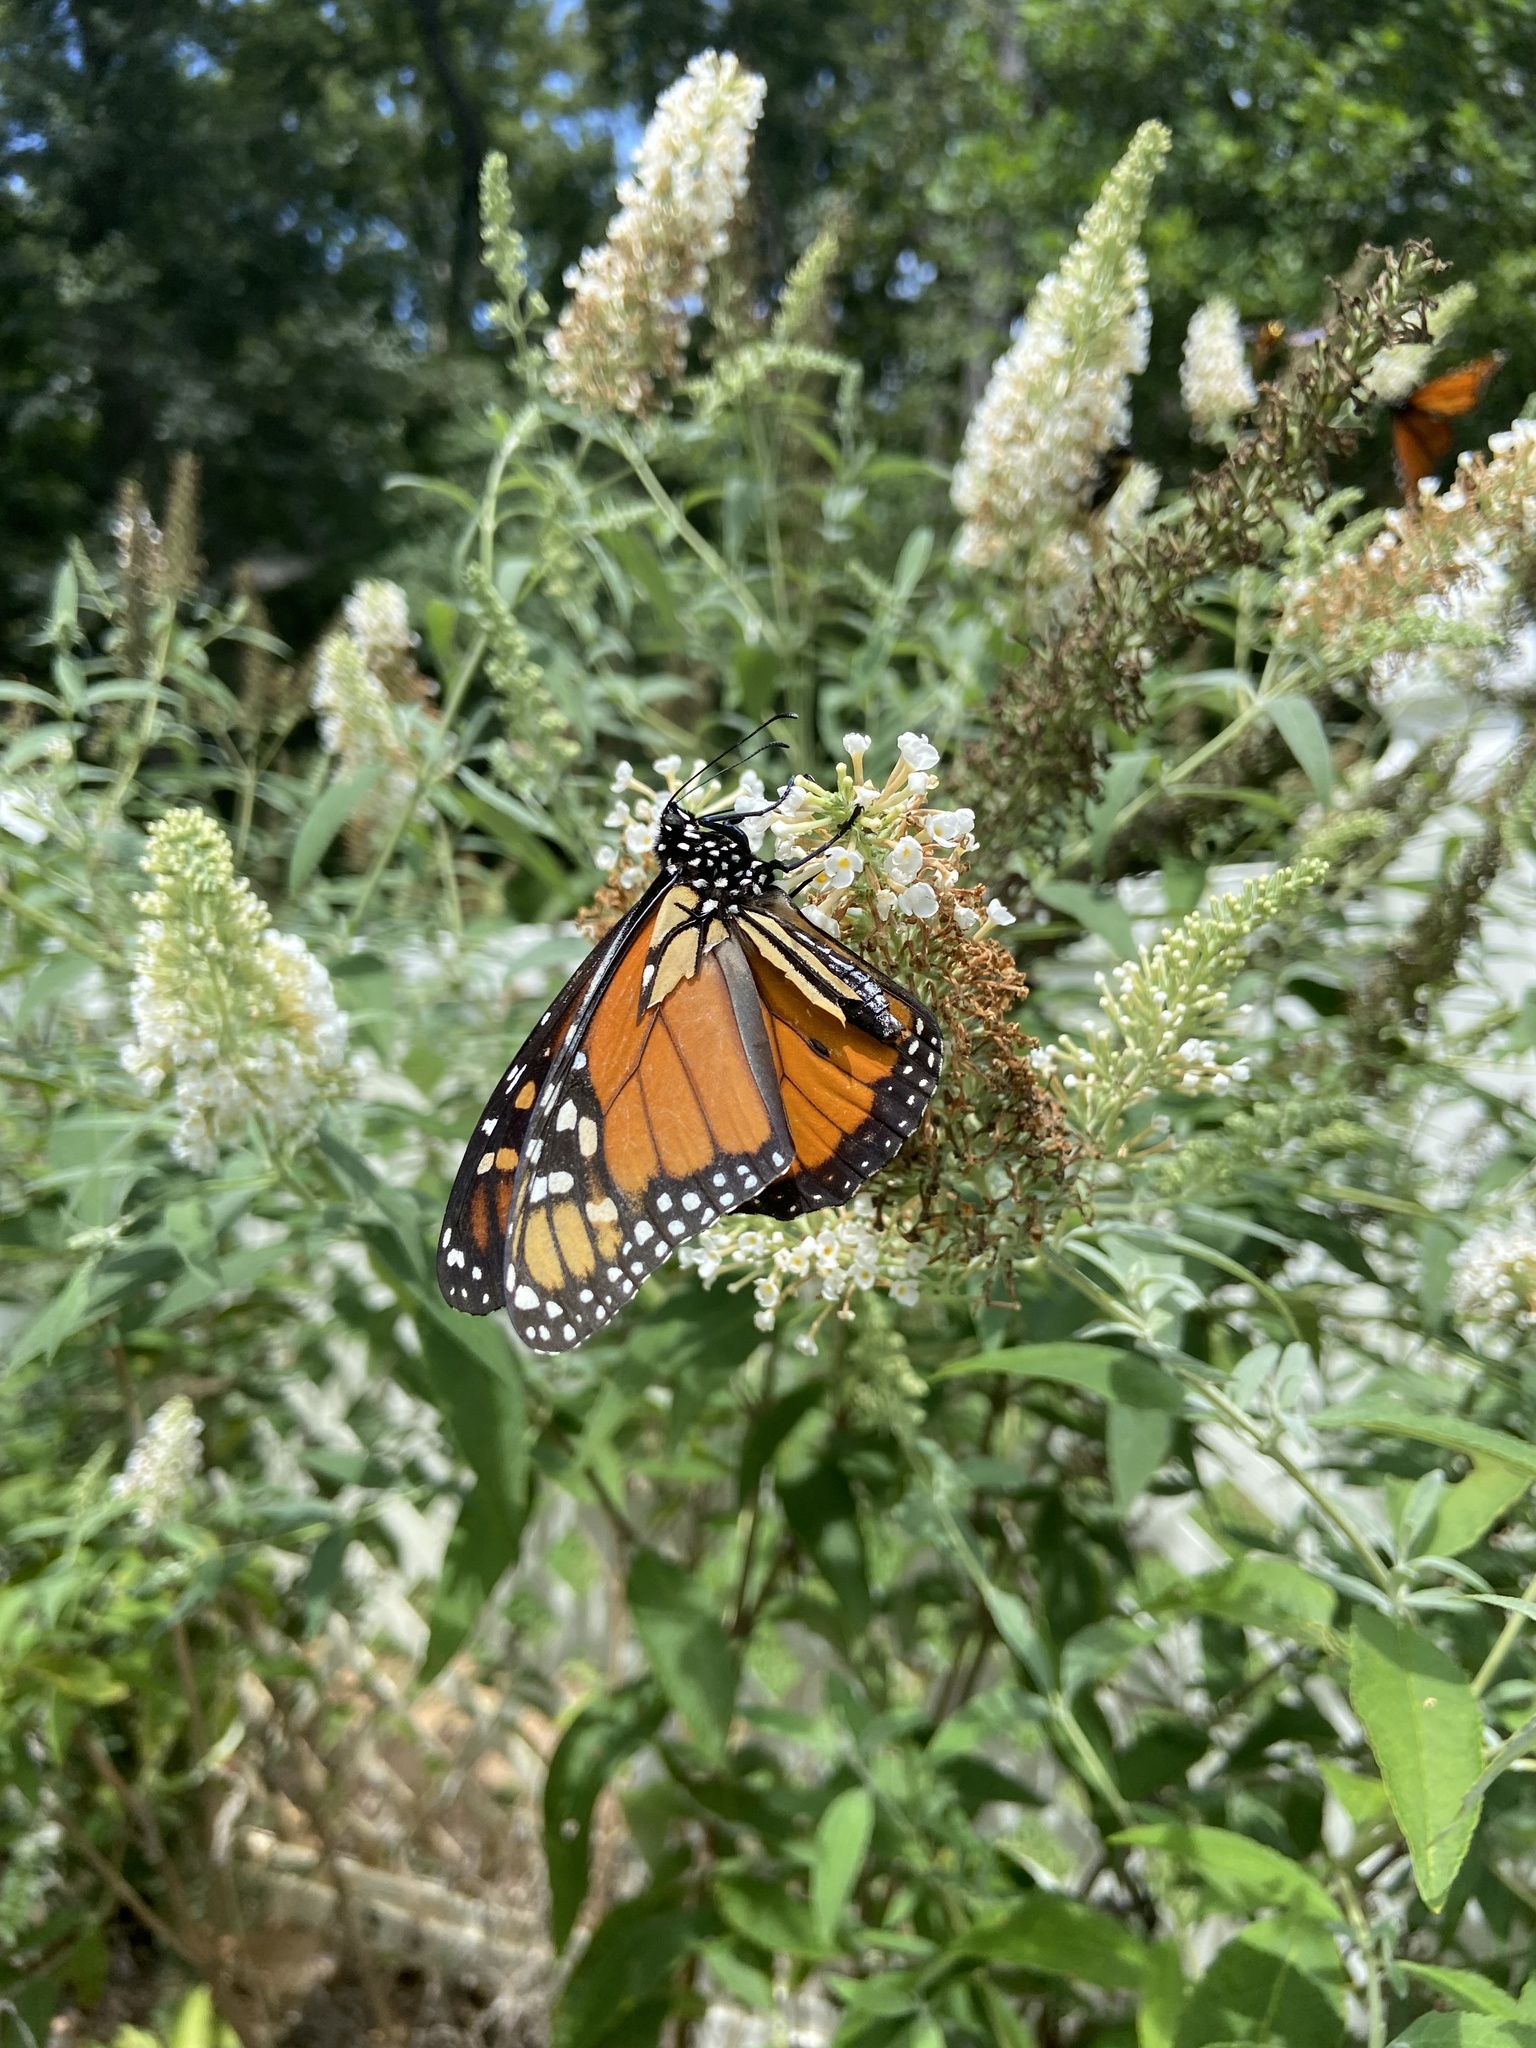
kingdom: Animalia
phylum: Arthropoda
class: Insecta
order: Lepidoptera
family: Nymphalidae
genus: Danaus
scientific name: Danaus plexippus
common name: Monarch
